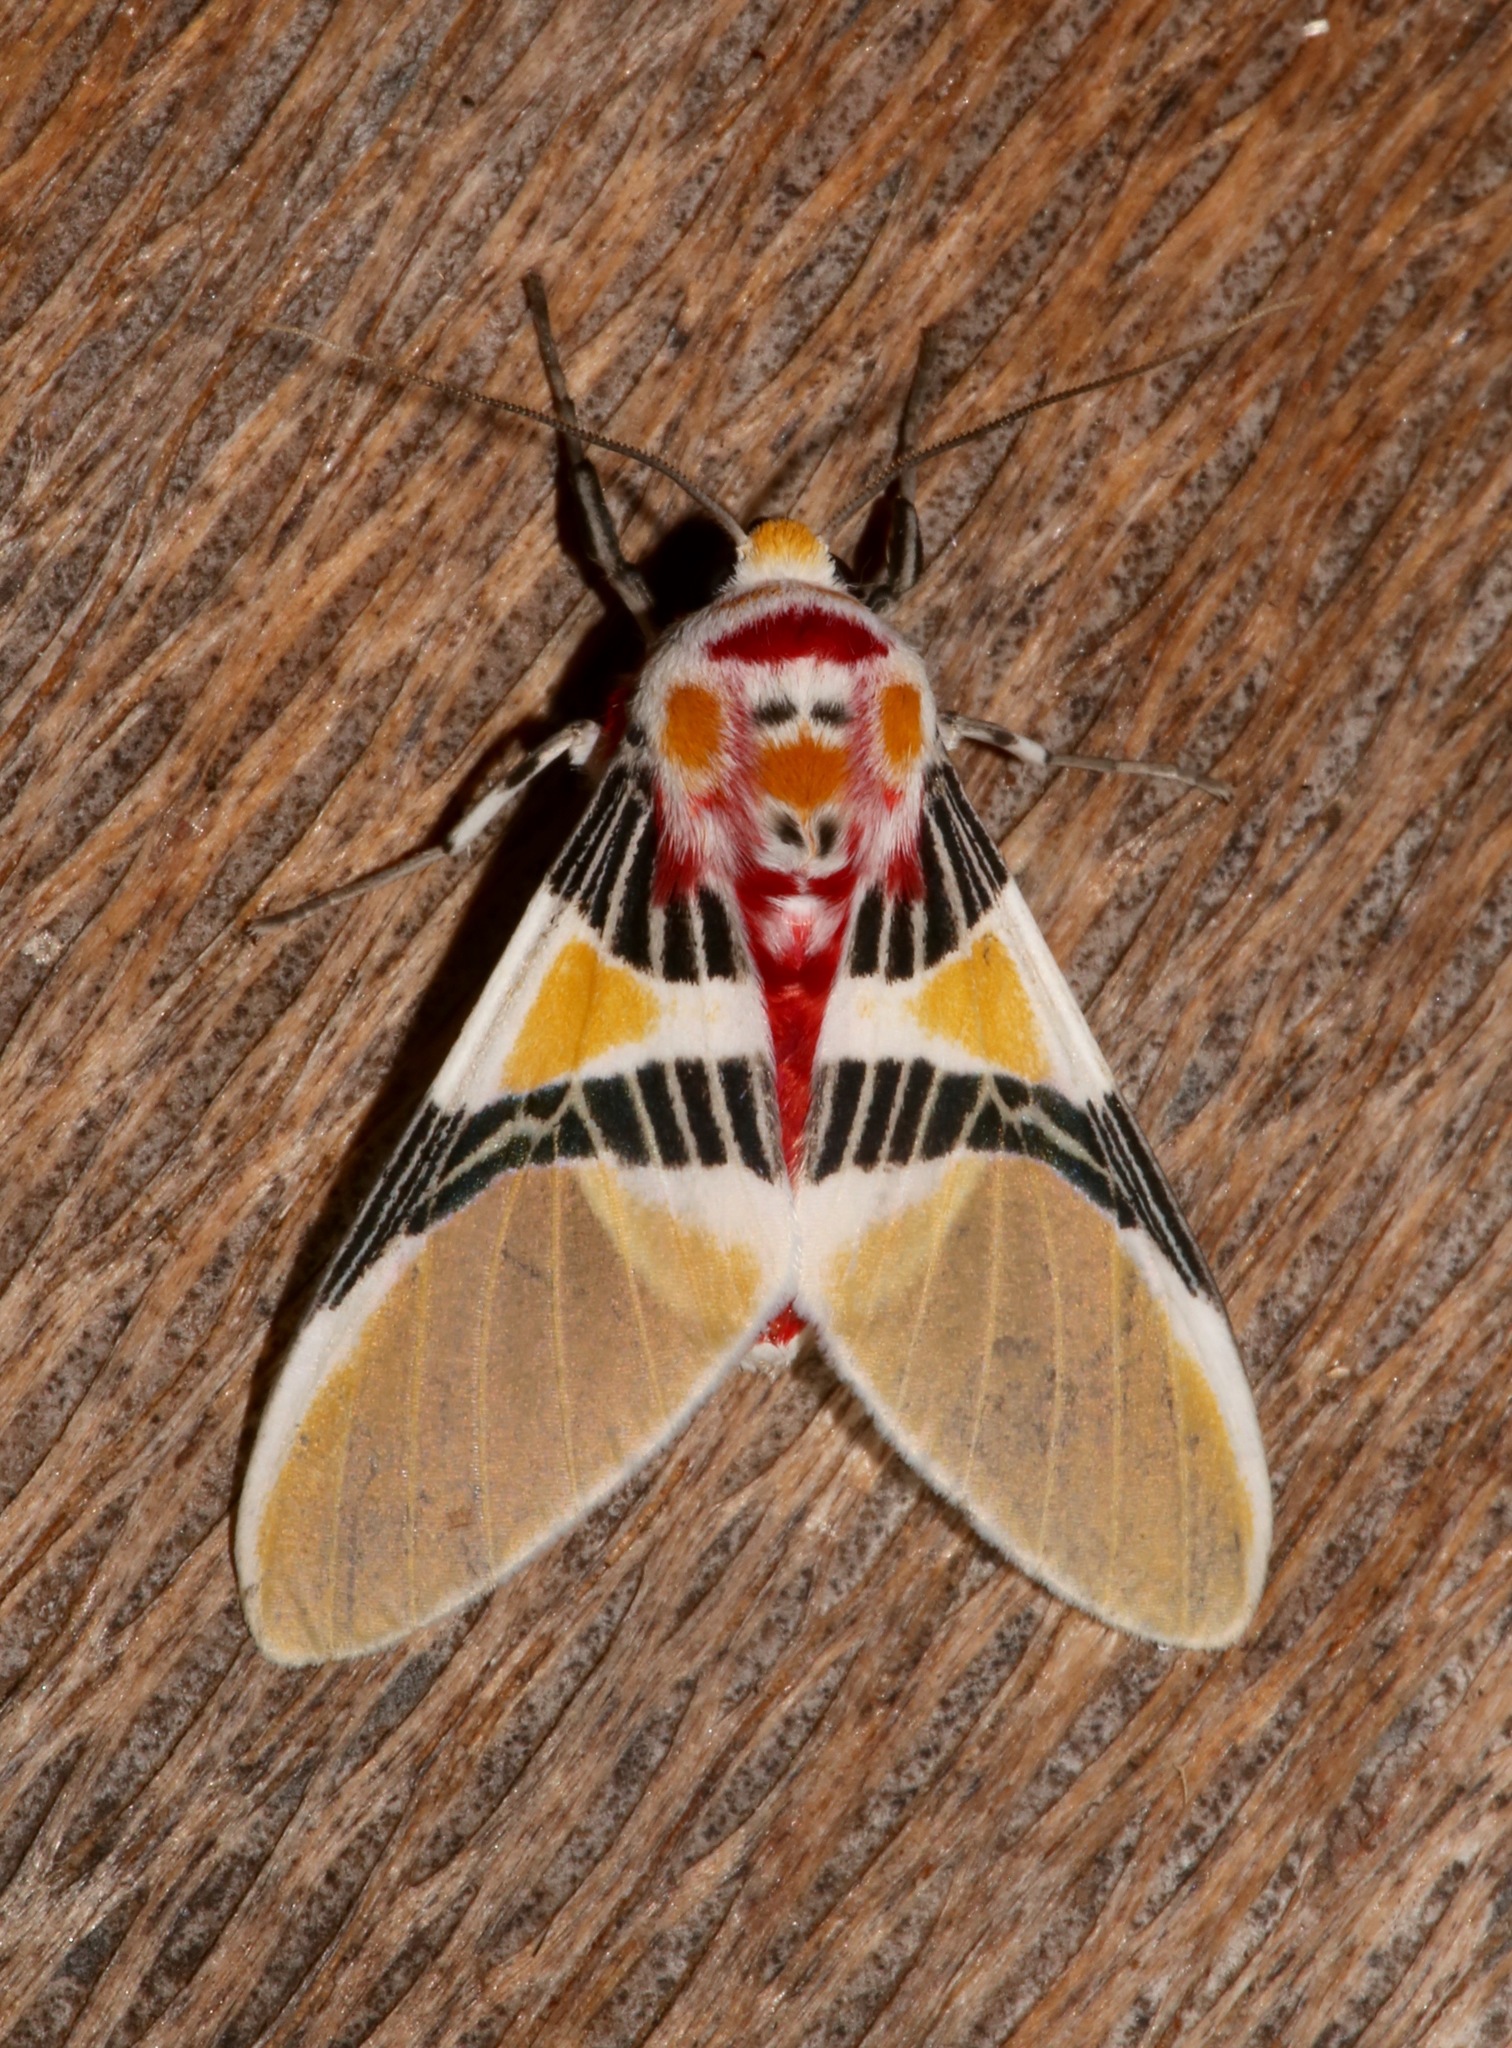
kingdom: Animalia
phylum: Arthropoda
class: Insecta
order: Lepidoptera
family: Erebidae
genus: Idalus
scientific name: Idalus herois
